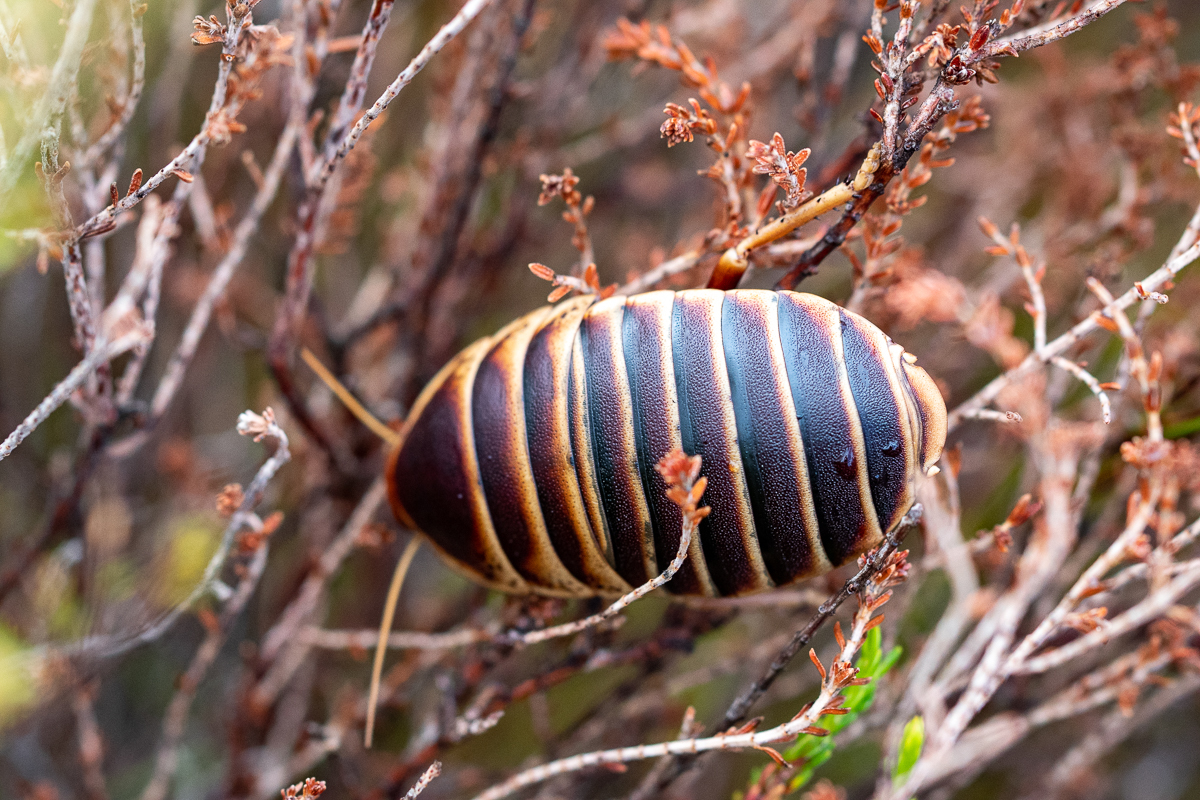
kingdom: Animalia
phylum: Arthropoda
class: Insecta
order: Blattodea
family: Blaberidae
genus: Aptera
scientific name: Aptera fusca
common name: Cape mountain cockroach
